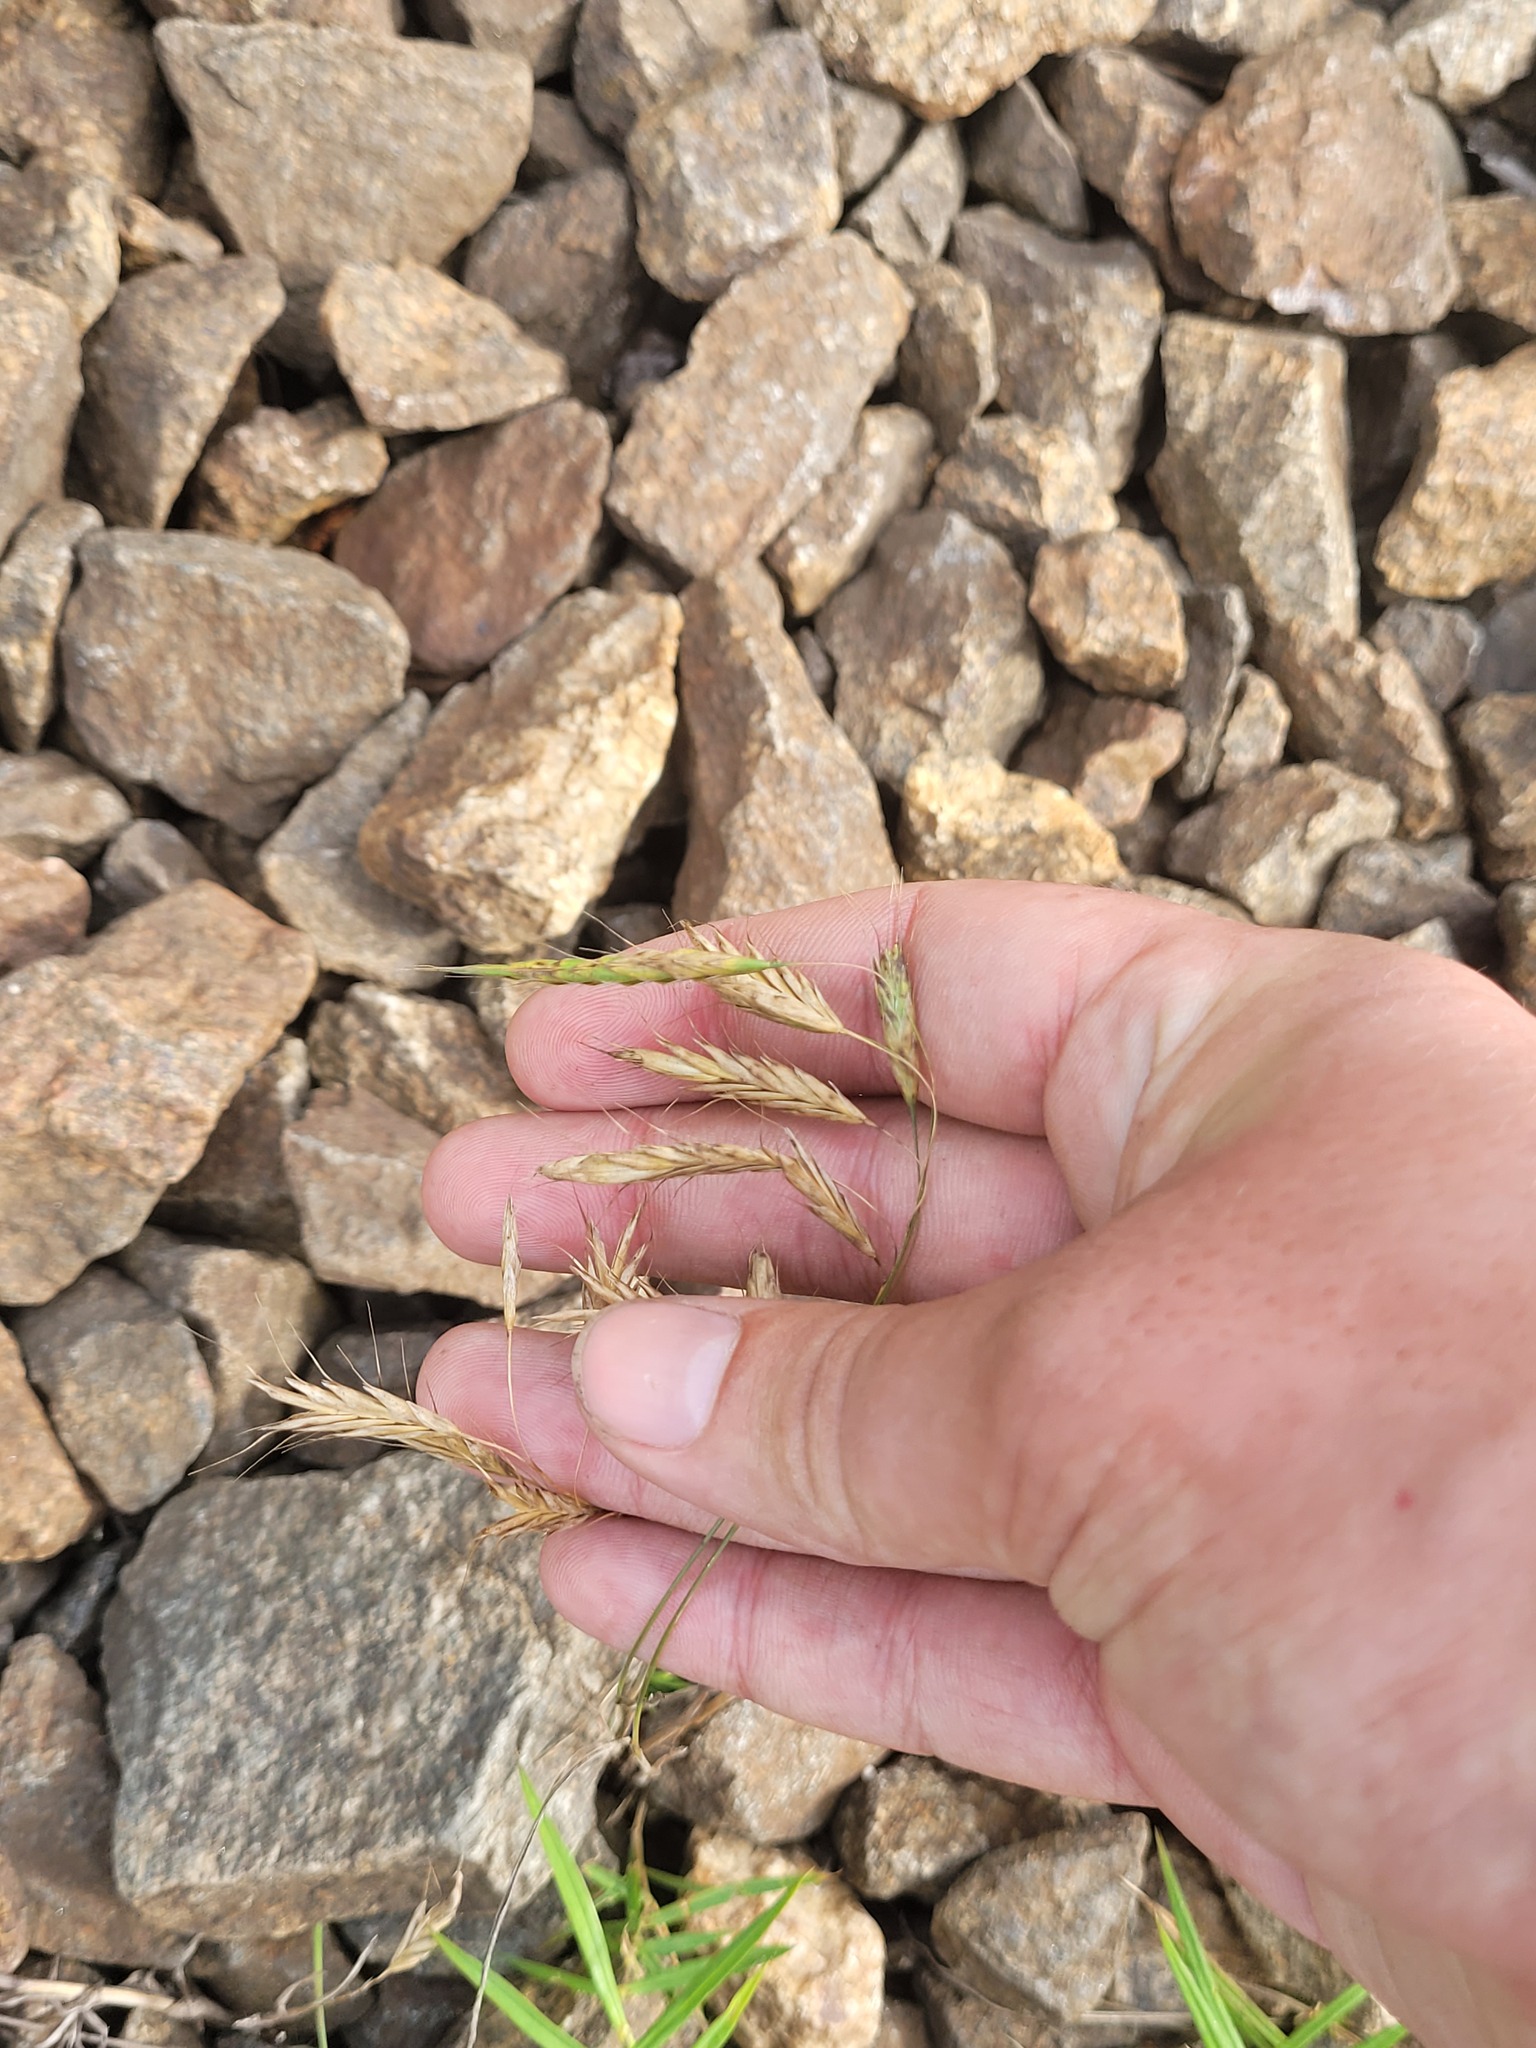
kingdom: Plantae
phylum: Tracheophyta
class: Liliopsida
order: Poales
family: Poaceae
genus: Bromus
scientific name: Bromus japonicus
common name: Japanese brome
